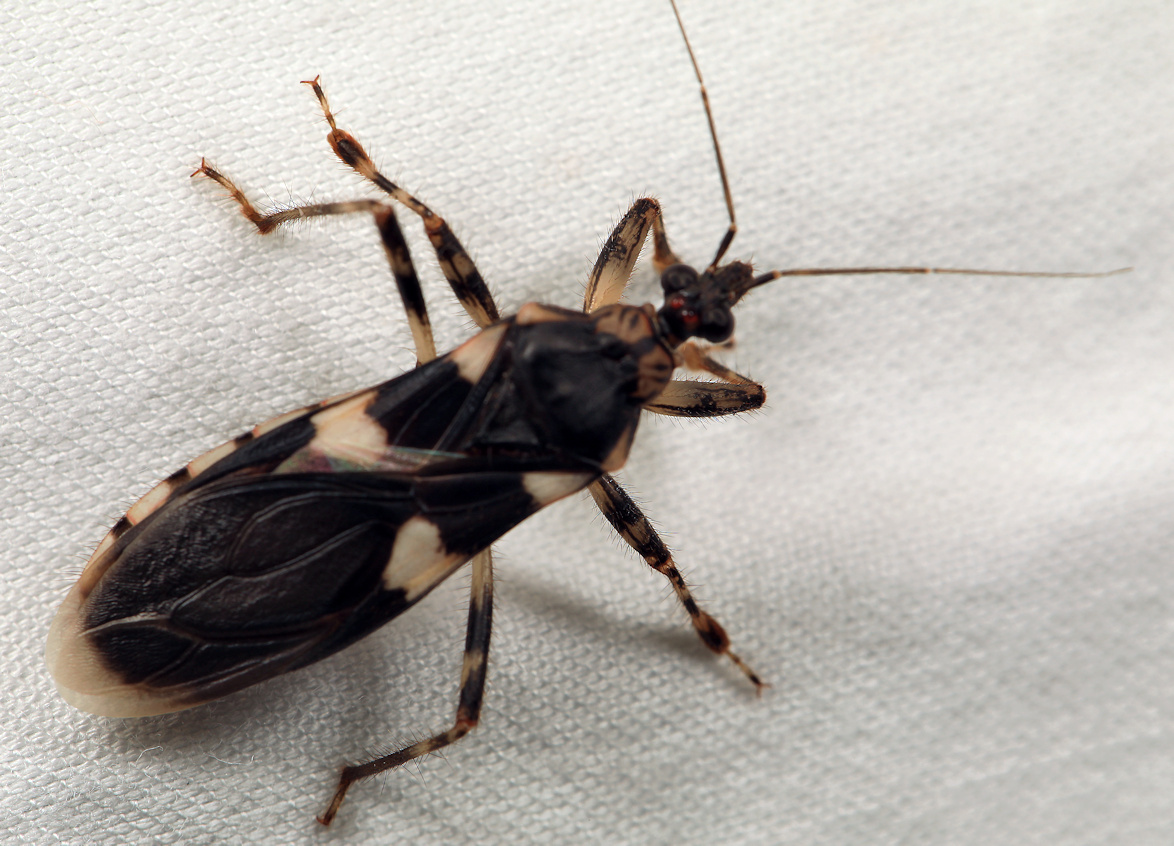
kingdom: Animalia
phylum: Arthropoda
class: Insecta
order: Hemiptera
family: Reduviidae
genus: Varus
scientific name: Varus flavoannulatus
